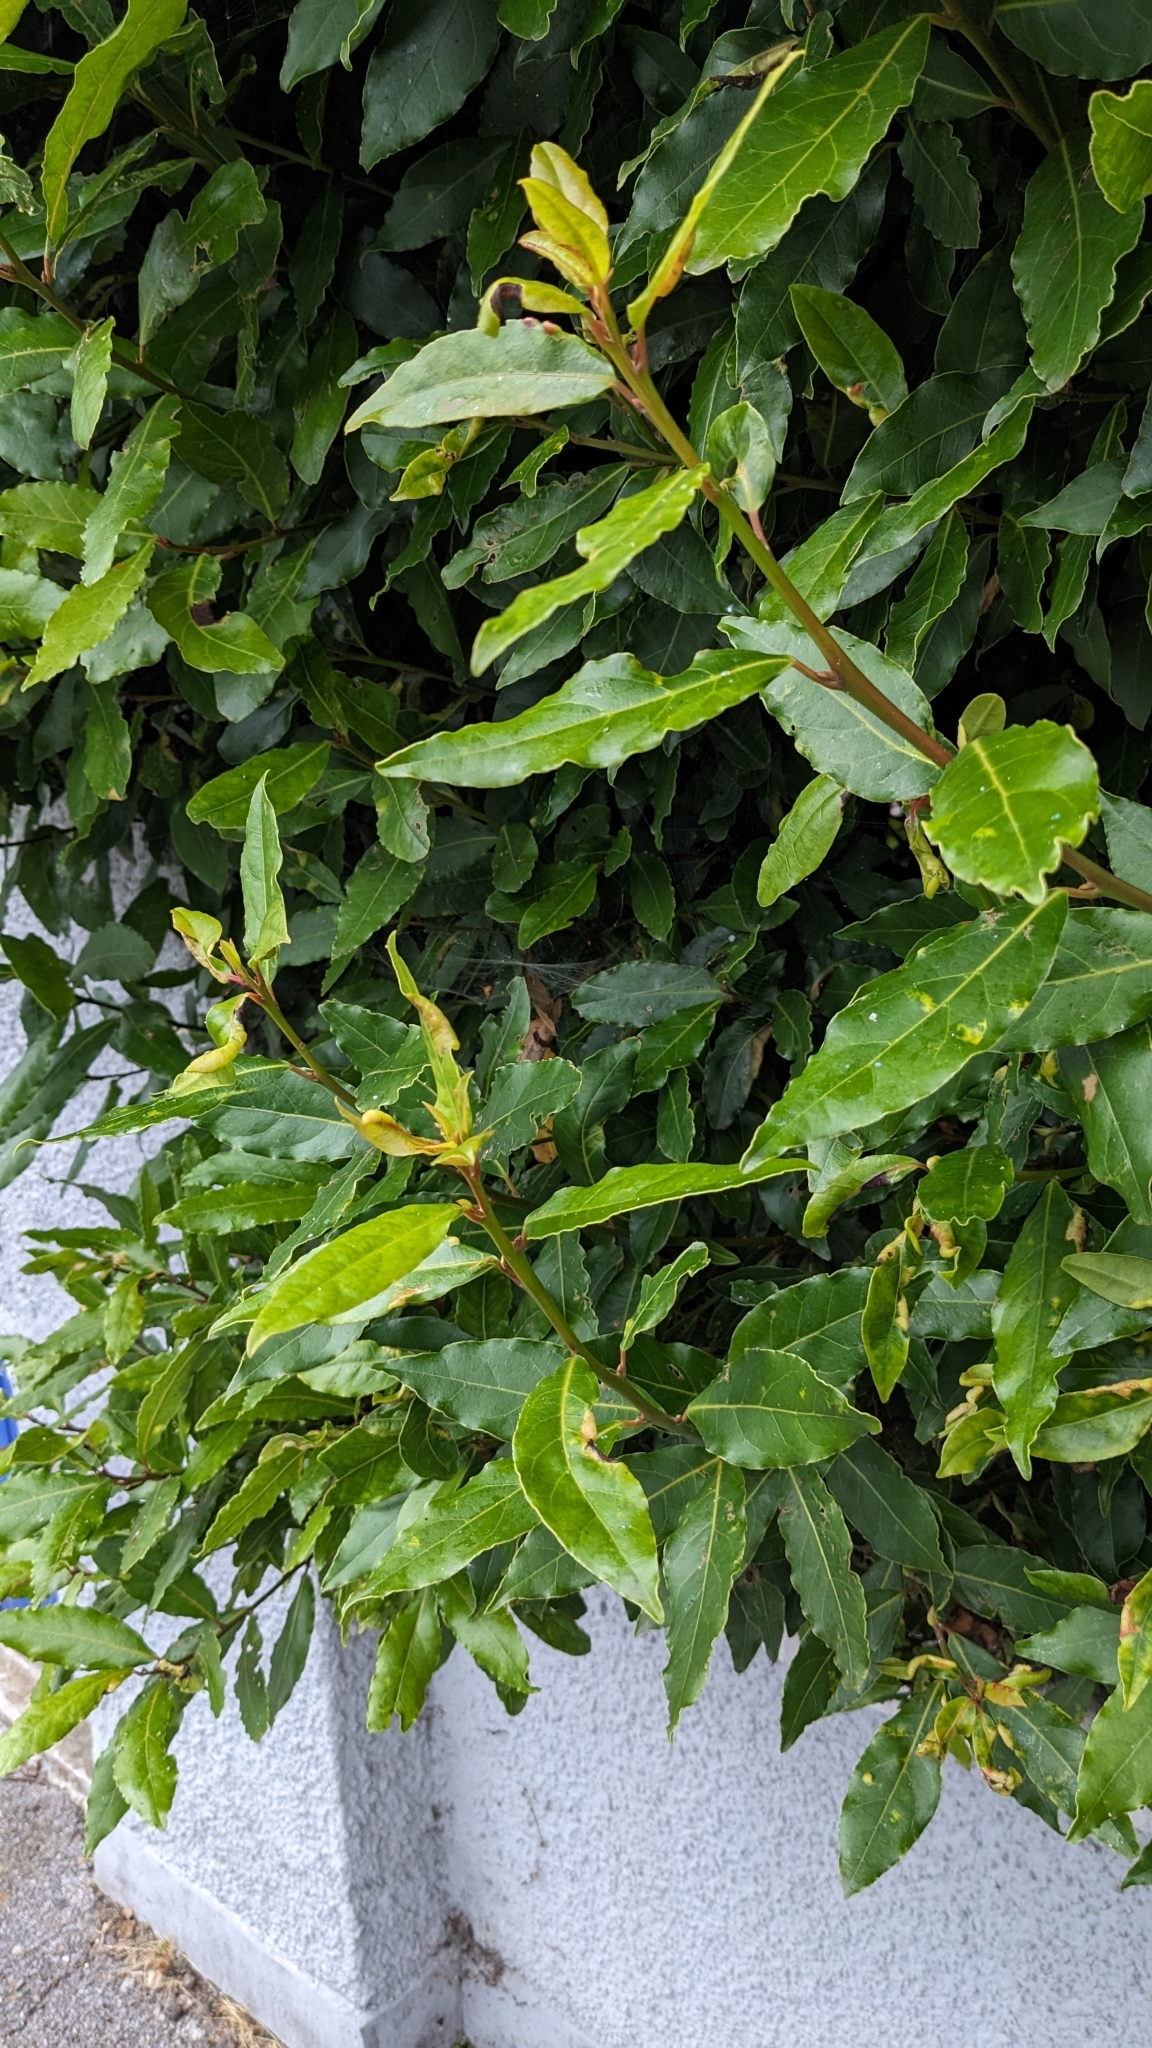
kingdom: Animalia
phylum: Arthropoda
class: Insecta
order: Hemiptera
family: Triozidae
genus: Lauritrioza
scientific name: Lauritrioza alacris
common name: Laurel psyllid
